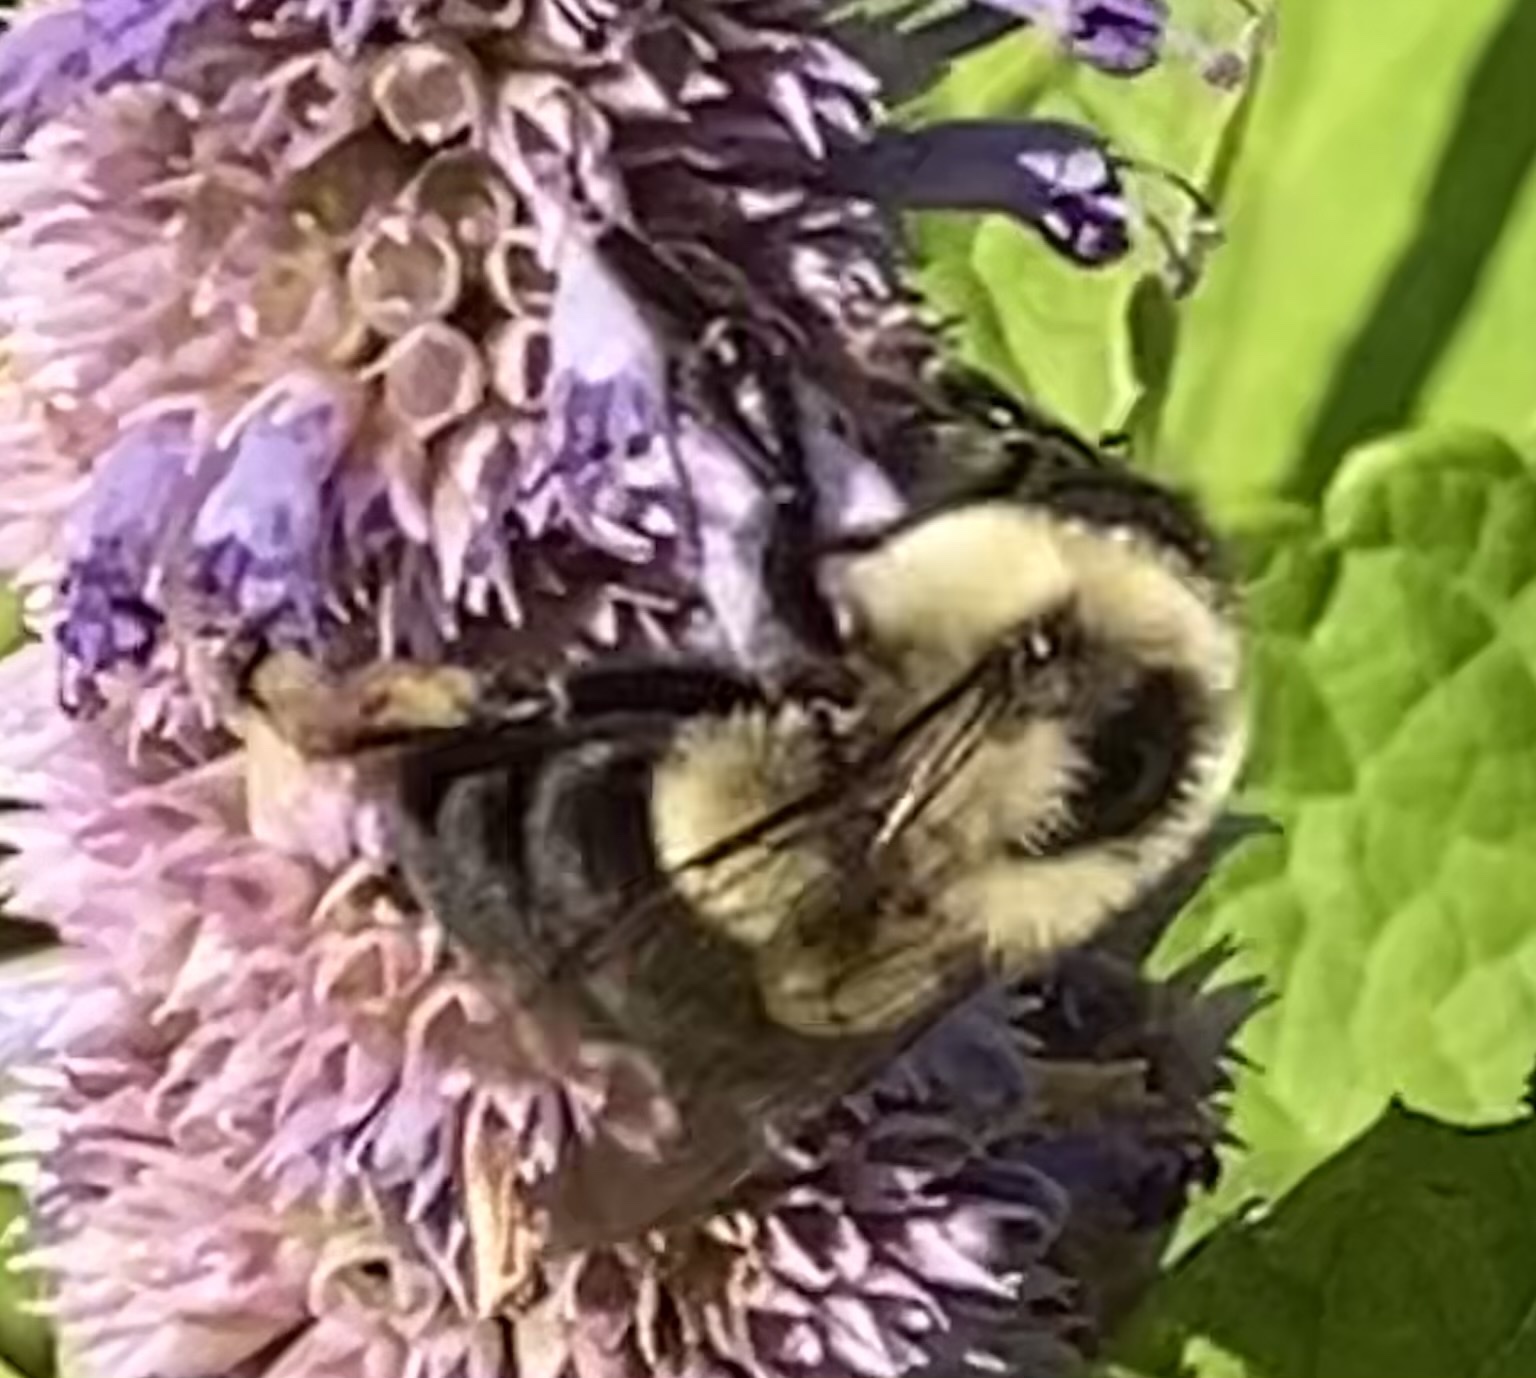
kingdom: Animalia
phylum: Arthropoda
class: Insecta
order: Hymenoptera
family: Apidae
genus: Bombus
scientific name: Bombus impatiens
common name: Common eastern bumble bee
